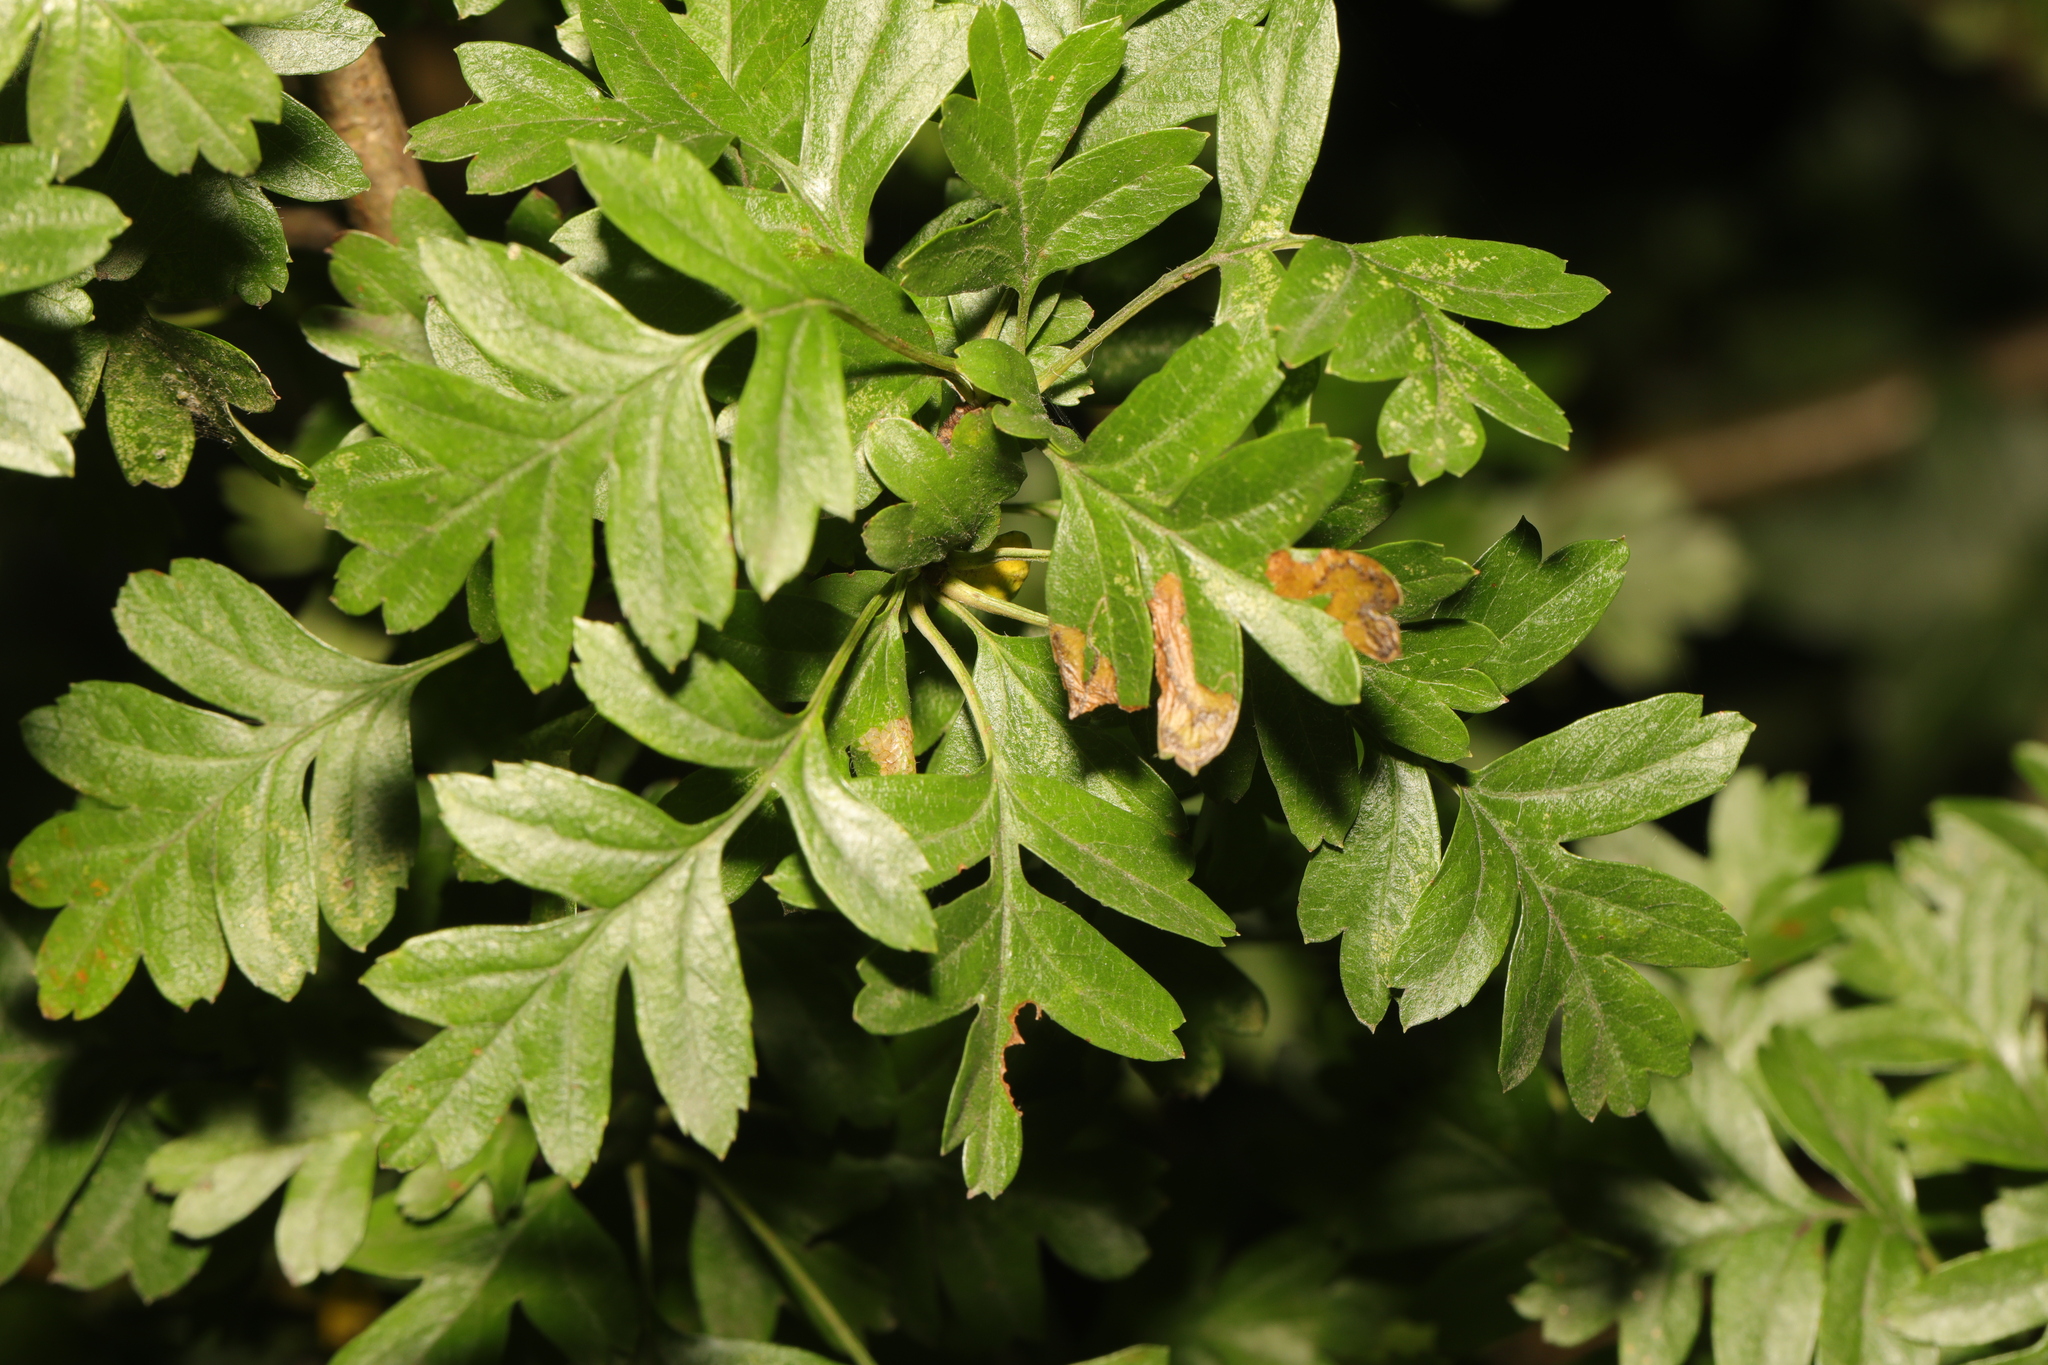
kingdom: Plantae
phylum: Tracheophyta
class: Magnoliopsida
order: Rosales
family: Rosaceae
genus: Crataegus
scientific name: Crataegus monogyna
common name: Hawthorn
